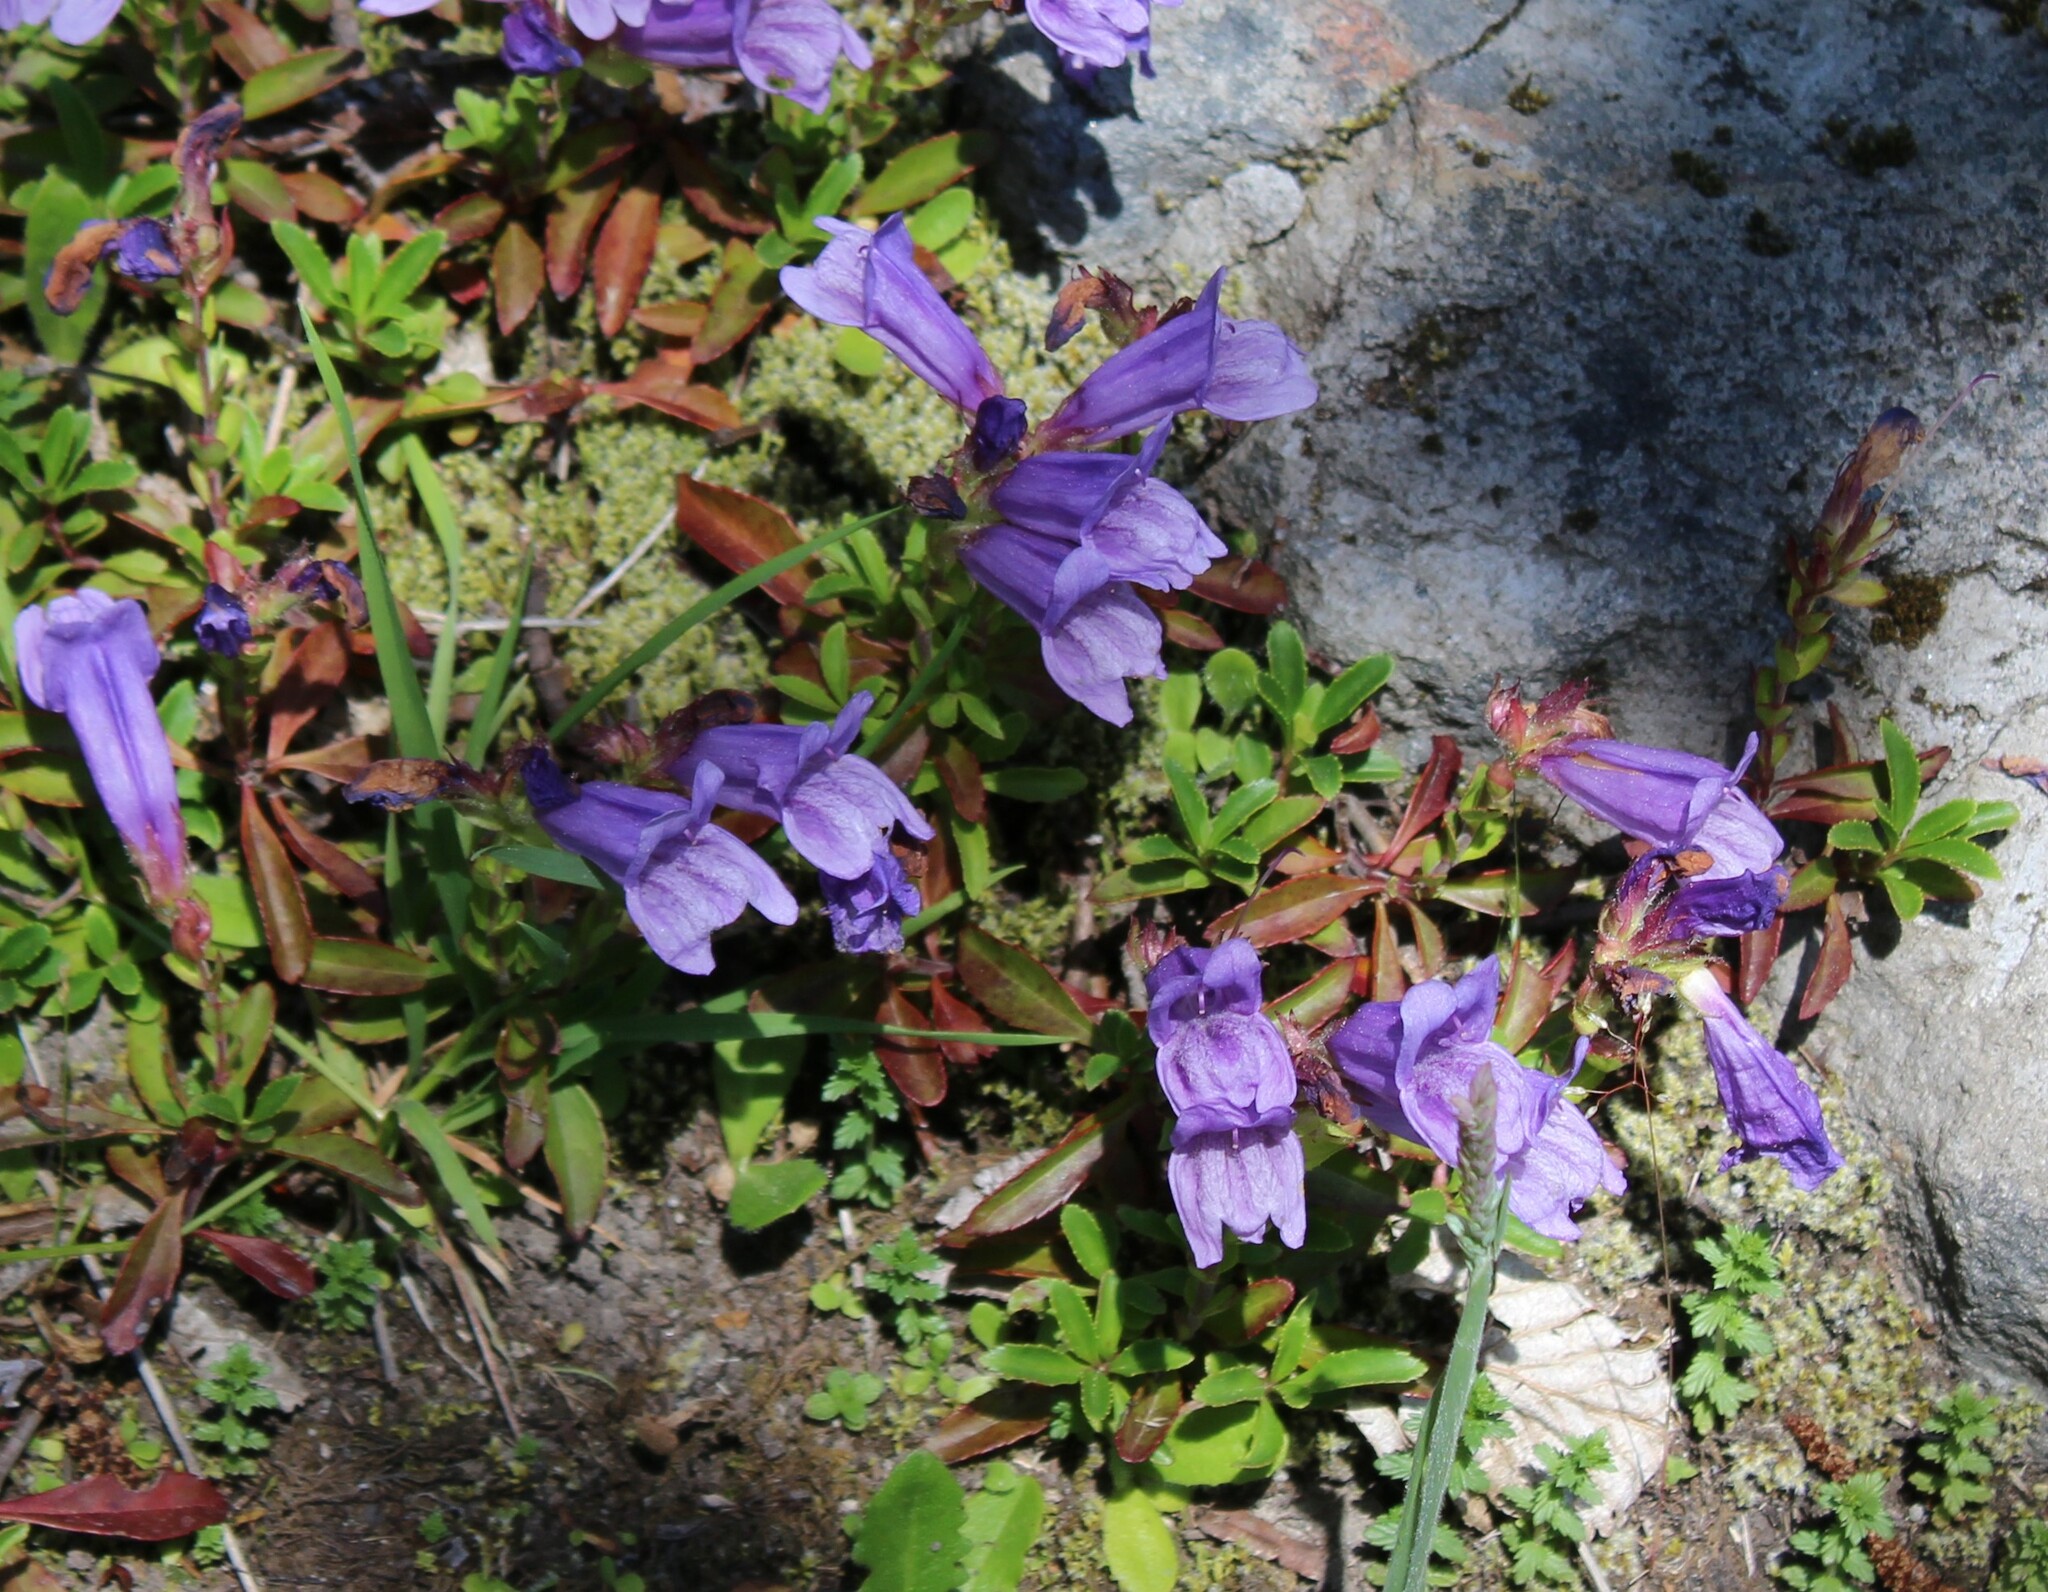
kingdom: Plantae
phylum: Tracheophyta
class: Magnoliopsida
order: Lamiales
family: Plantaginaceae
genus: Penstemon
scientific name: Penstemon cardwellii
